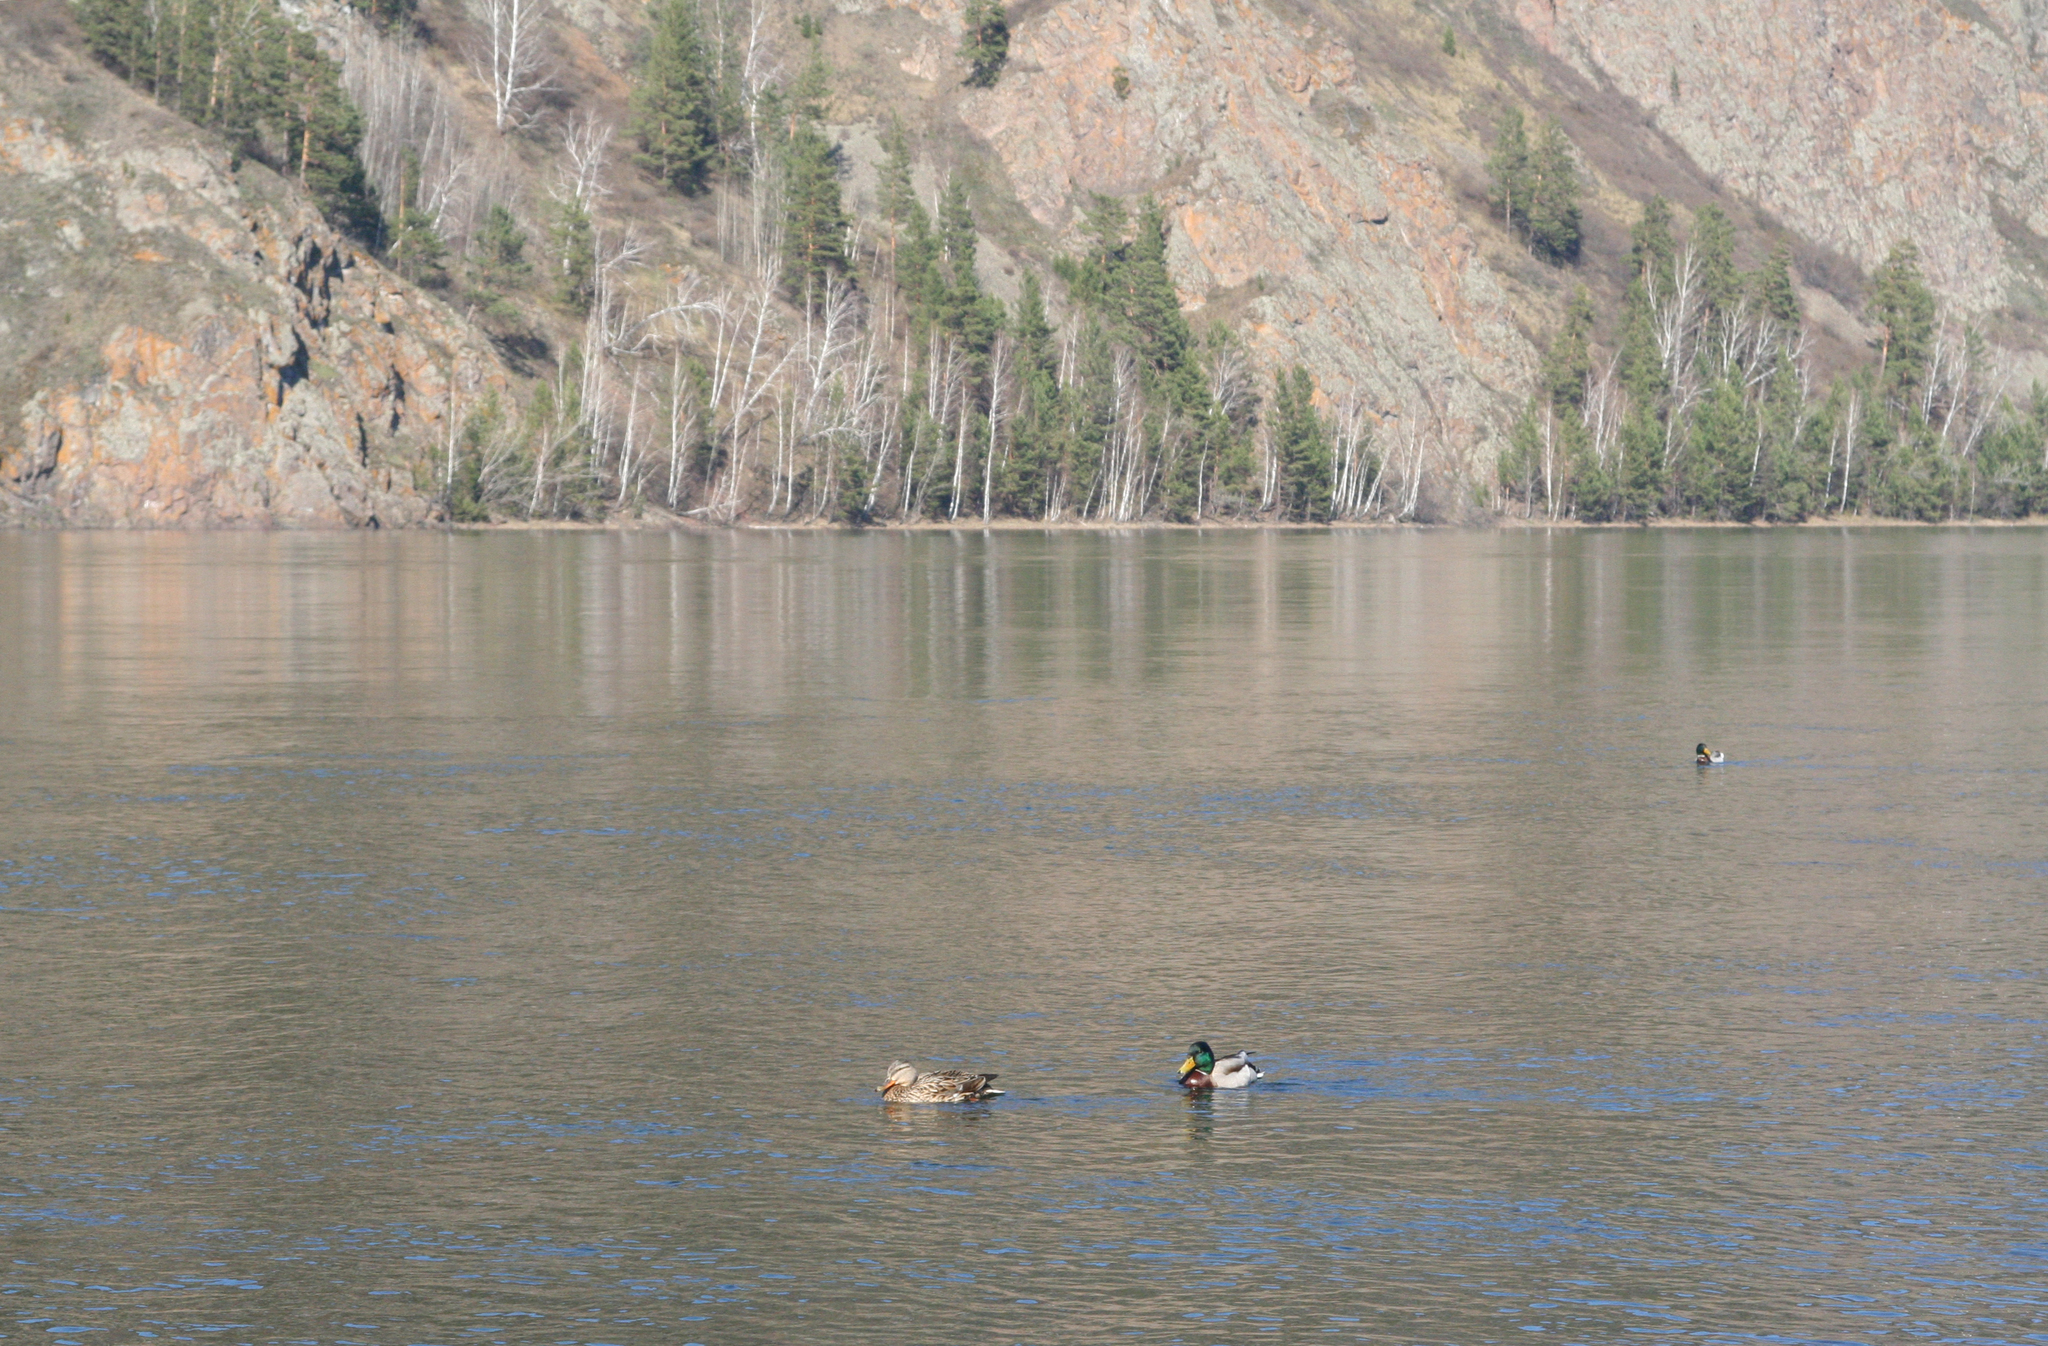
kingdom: Animalia
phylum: Chordata
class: Aves
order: Anseriformes
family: Anatidae
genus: Anas
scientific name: Anas platyrhynchos
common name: Mallard
